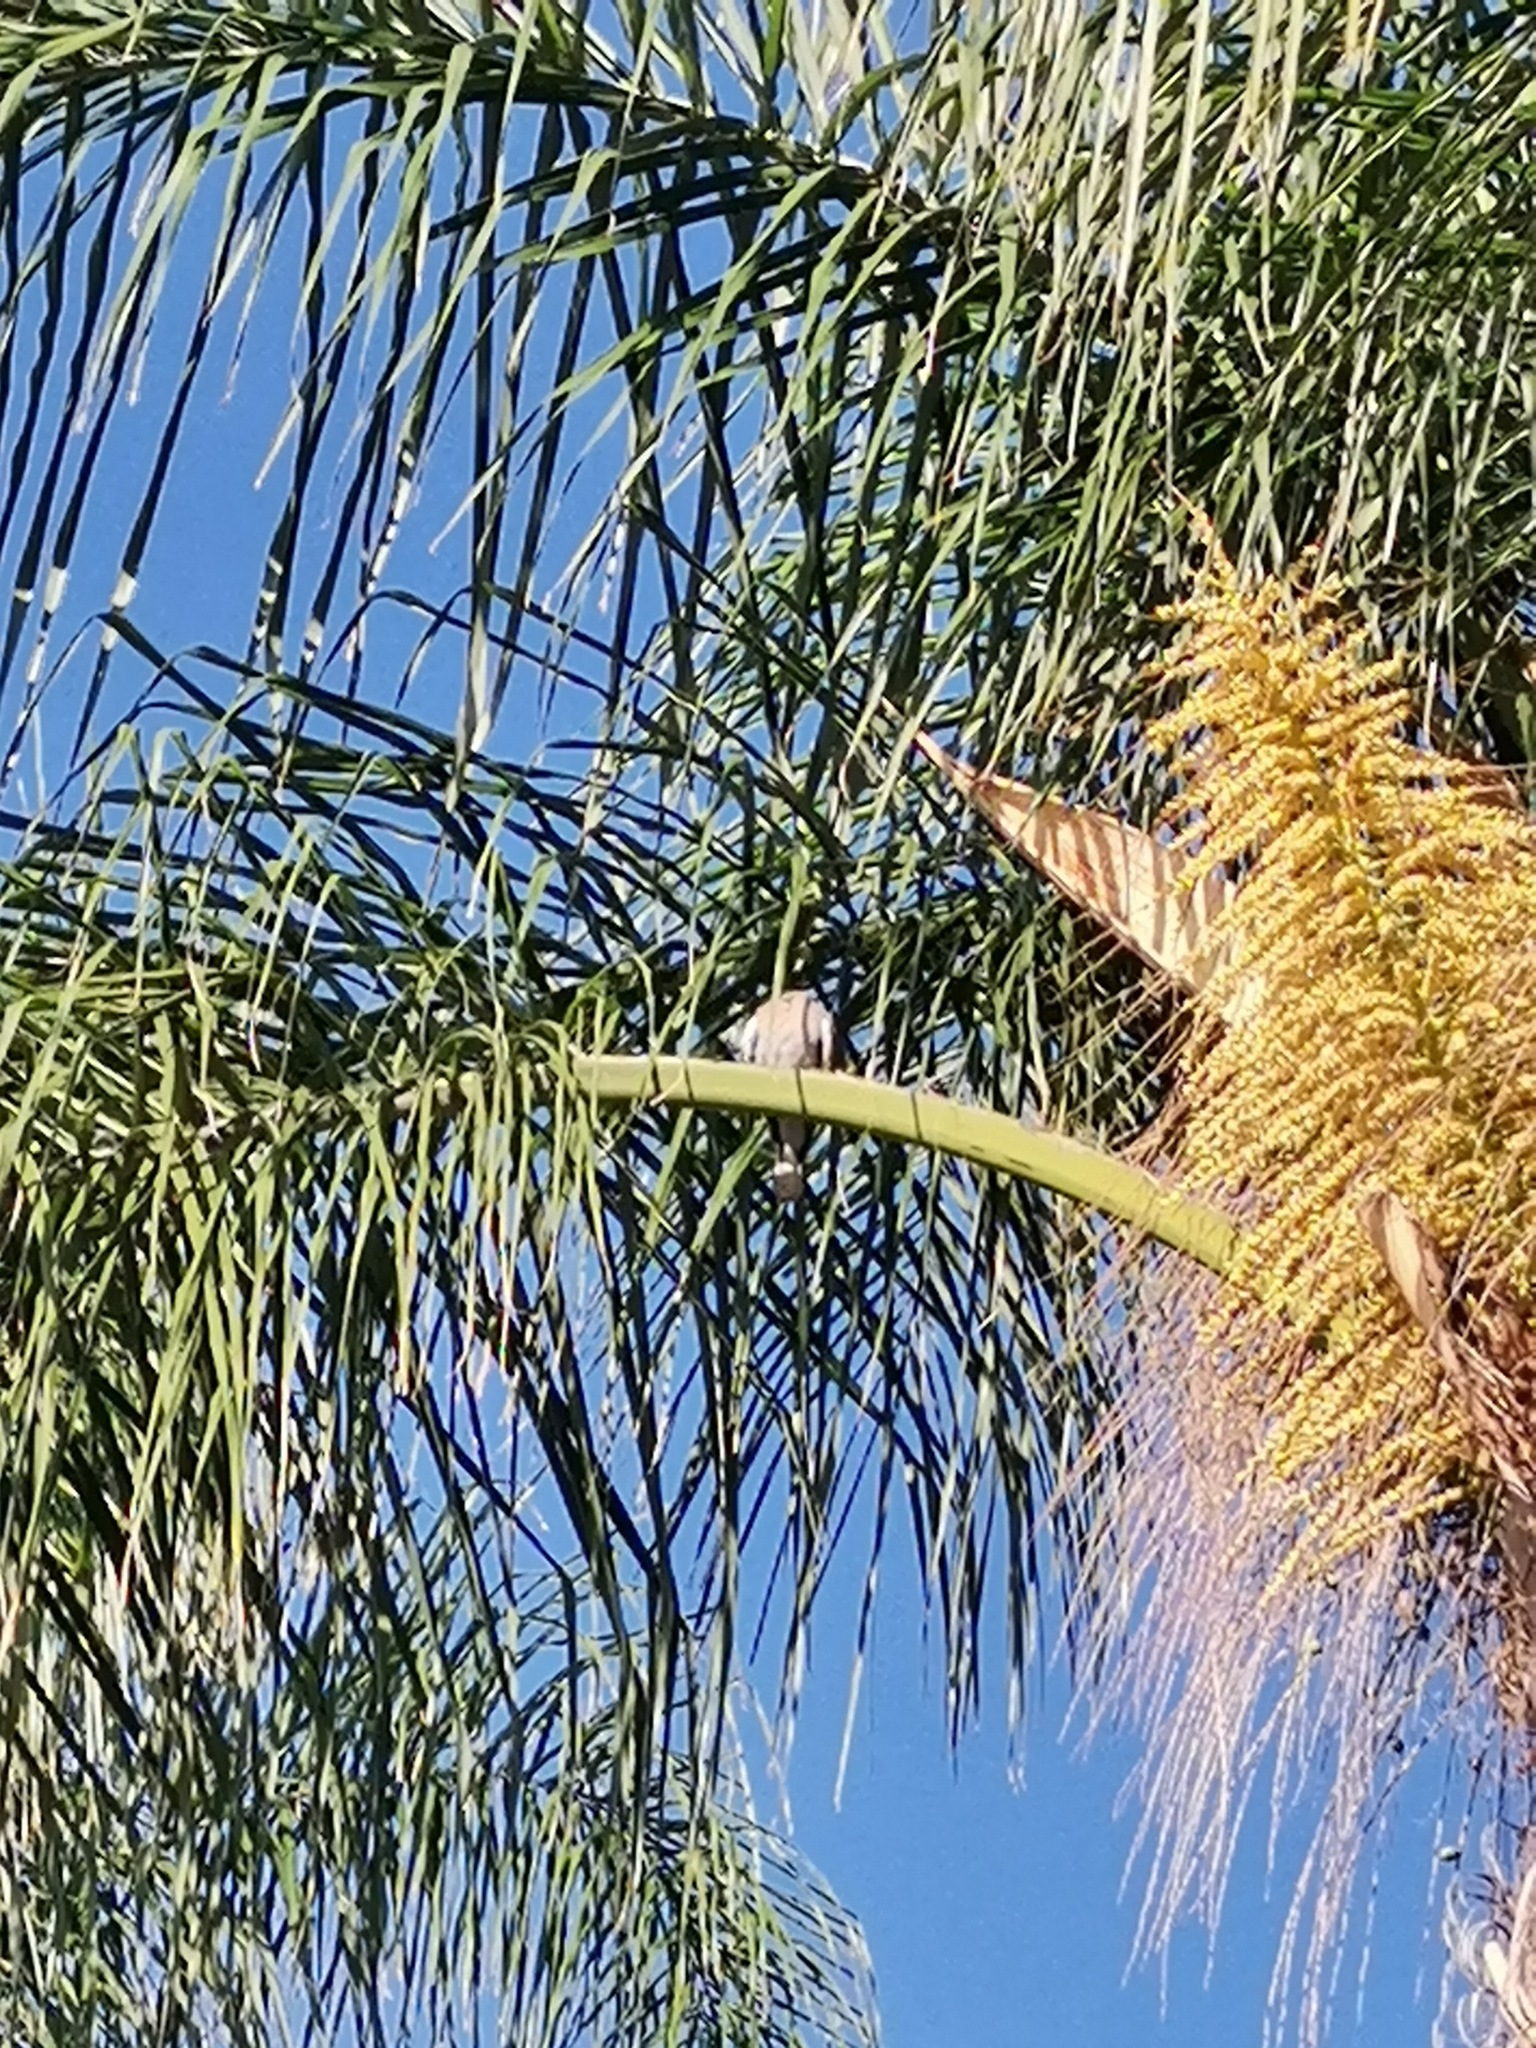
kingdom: Animalia
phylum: Chordata
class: Aves
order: Columbiformes
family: Columbidae
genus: Streptopelia
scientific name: Streptopelia decaocto
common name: Eurasian collared dove
